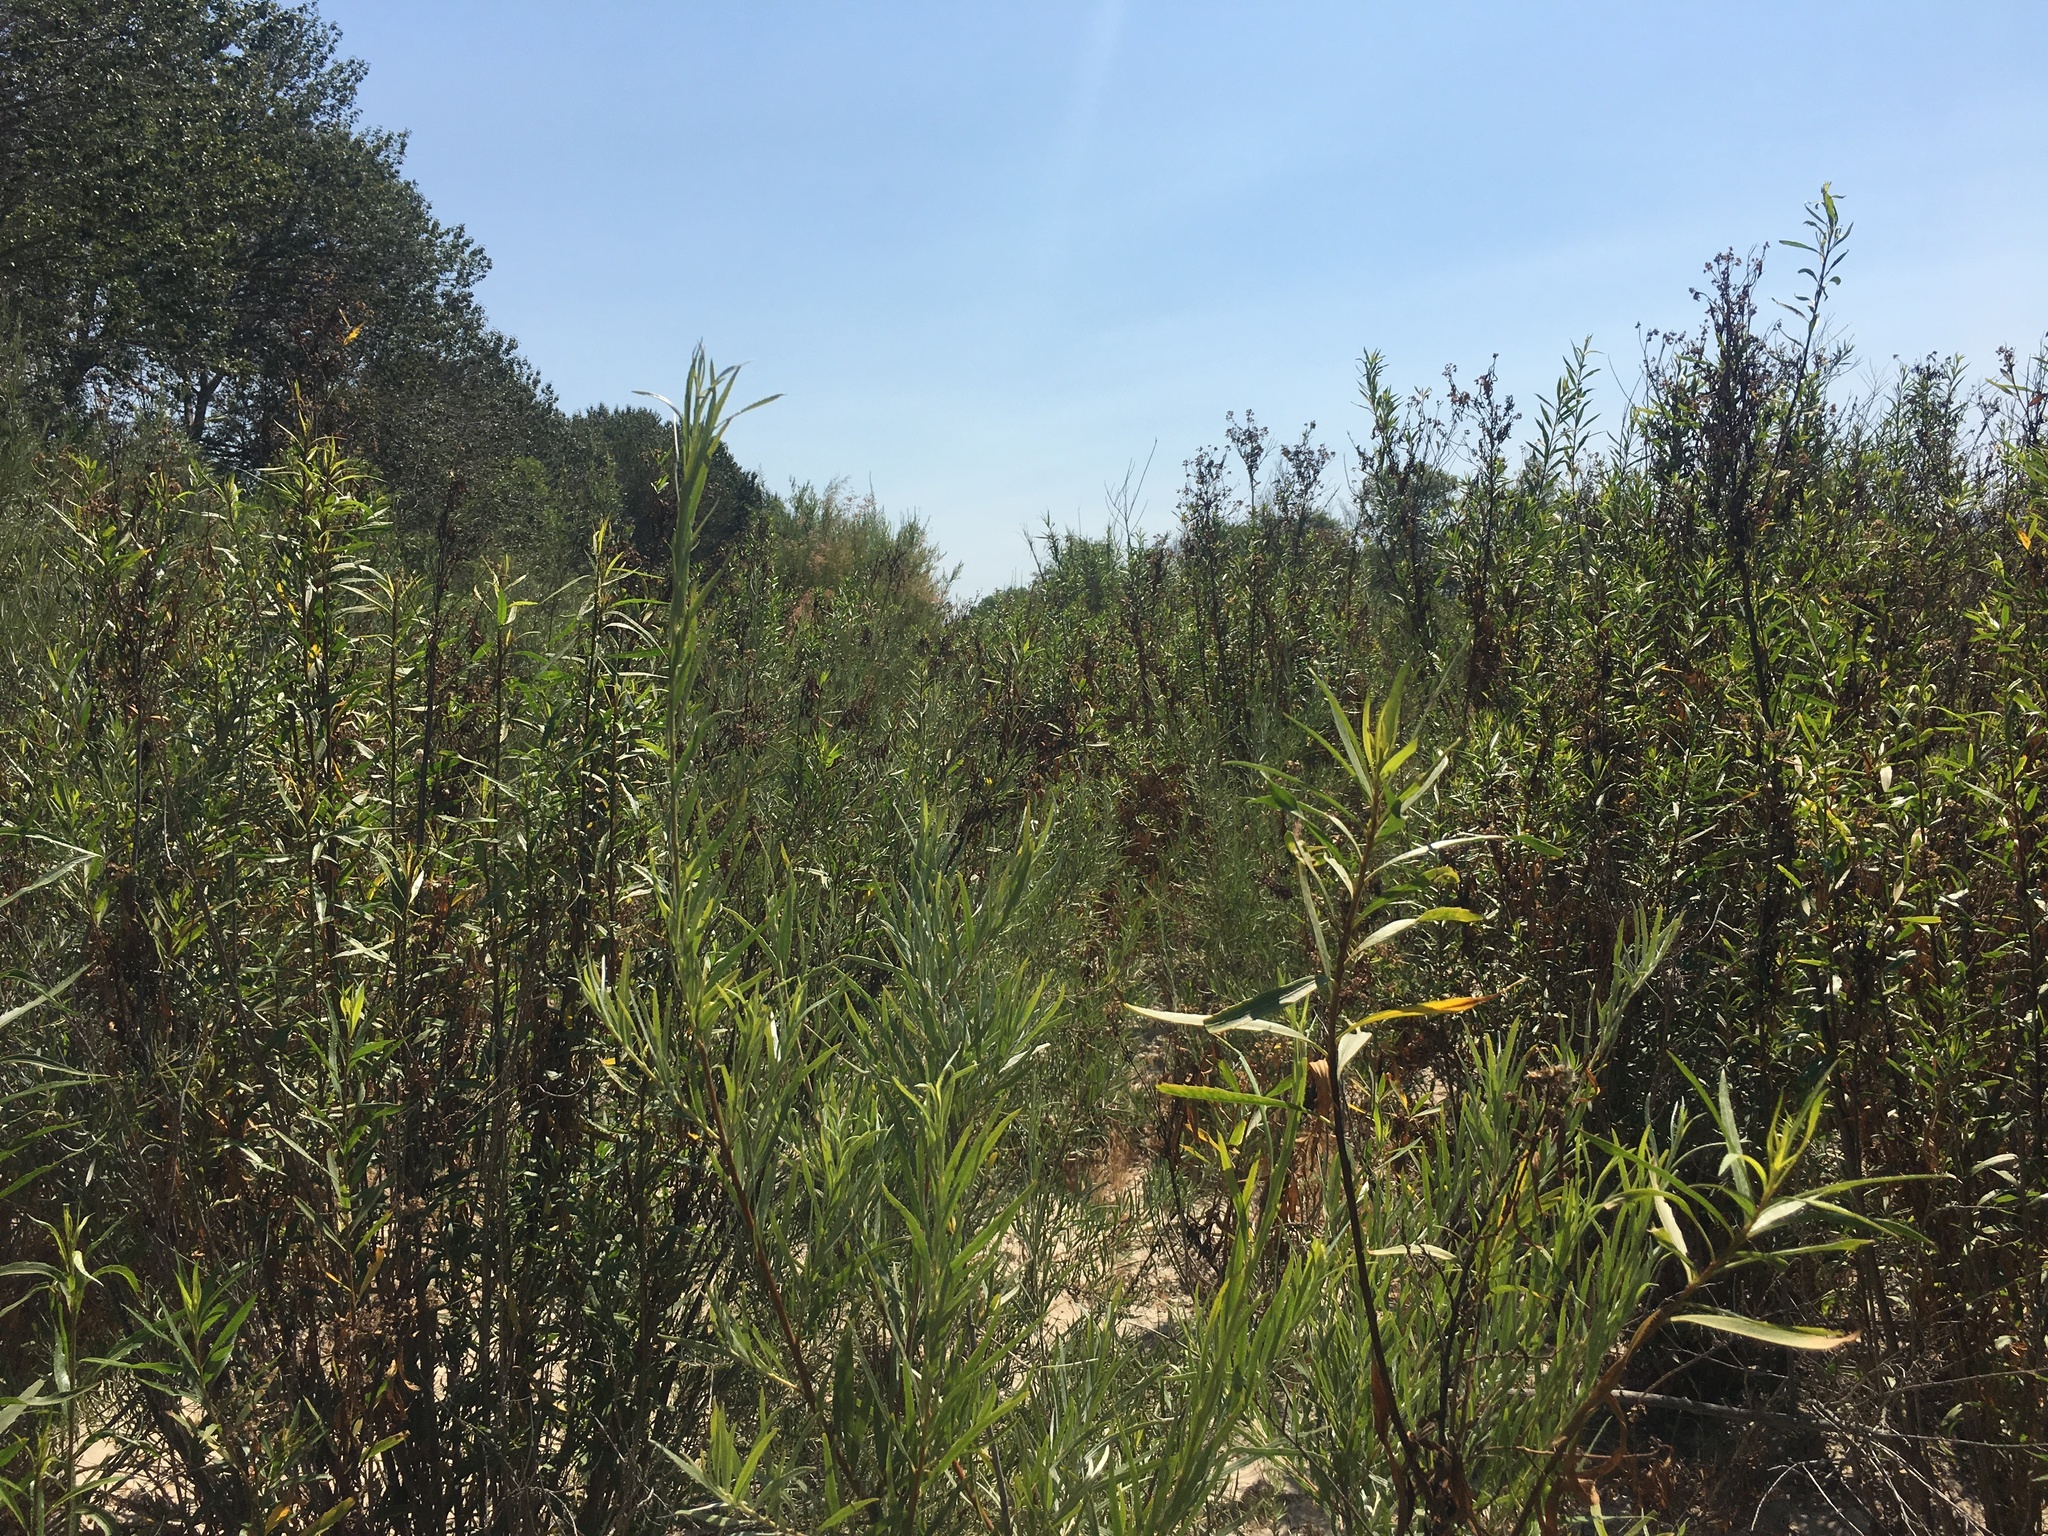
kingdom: Plantae
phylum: Tracheophyta
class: Magnoliopsida
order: Asterales
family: Asteraceae
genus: Baccharis
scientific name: Baccharis salicifolia
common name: Sticky baccharis
